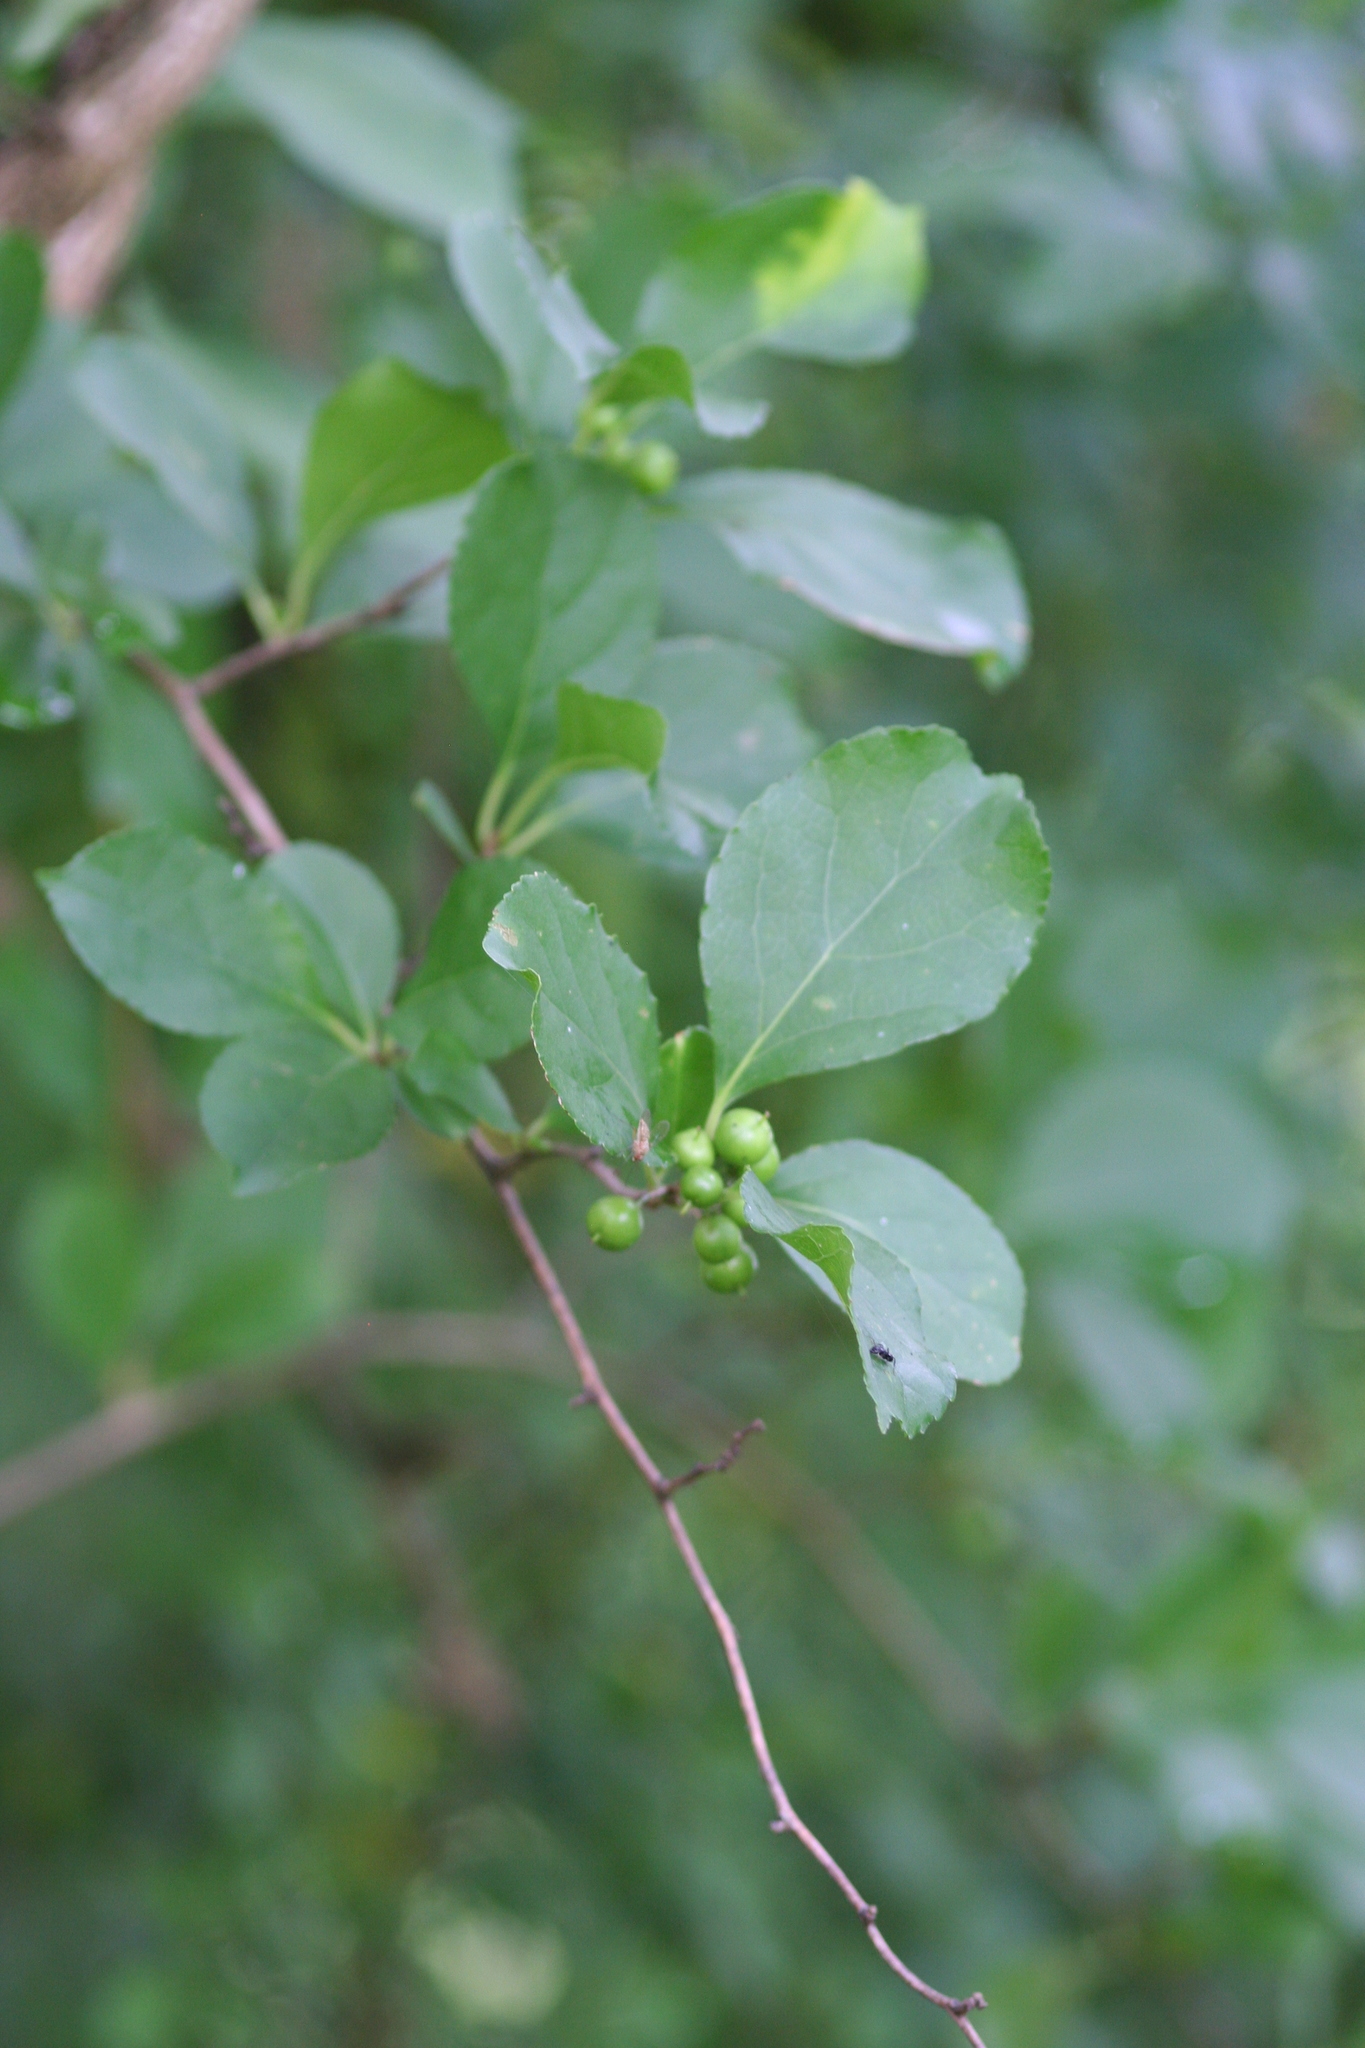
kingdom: Plantae
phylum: Tracheophyta
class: Magnoliopsida
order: Celastrales
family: Celastraceae
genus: Celastrus
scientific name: Celastrus orbiculatus
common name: Oriental bittersweet
